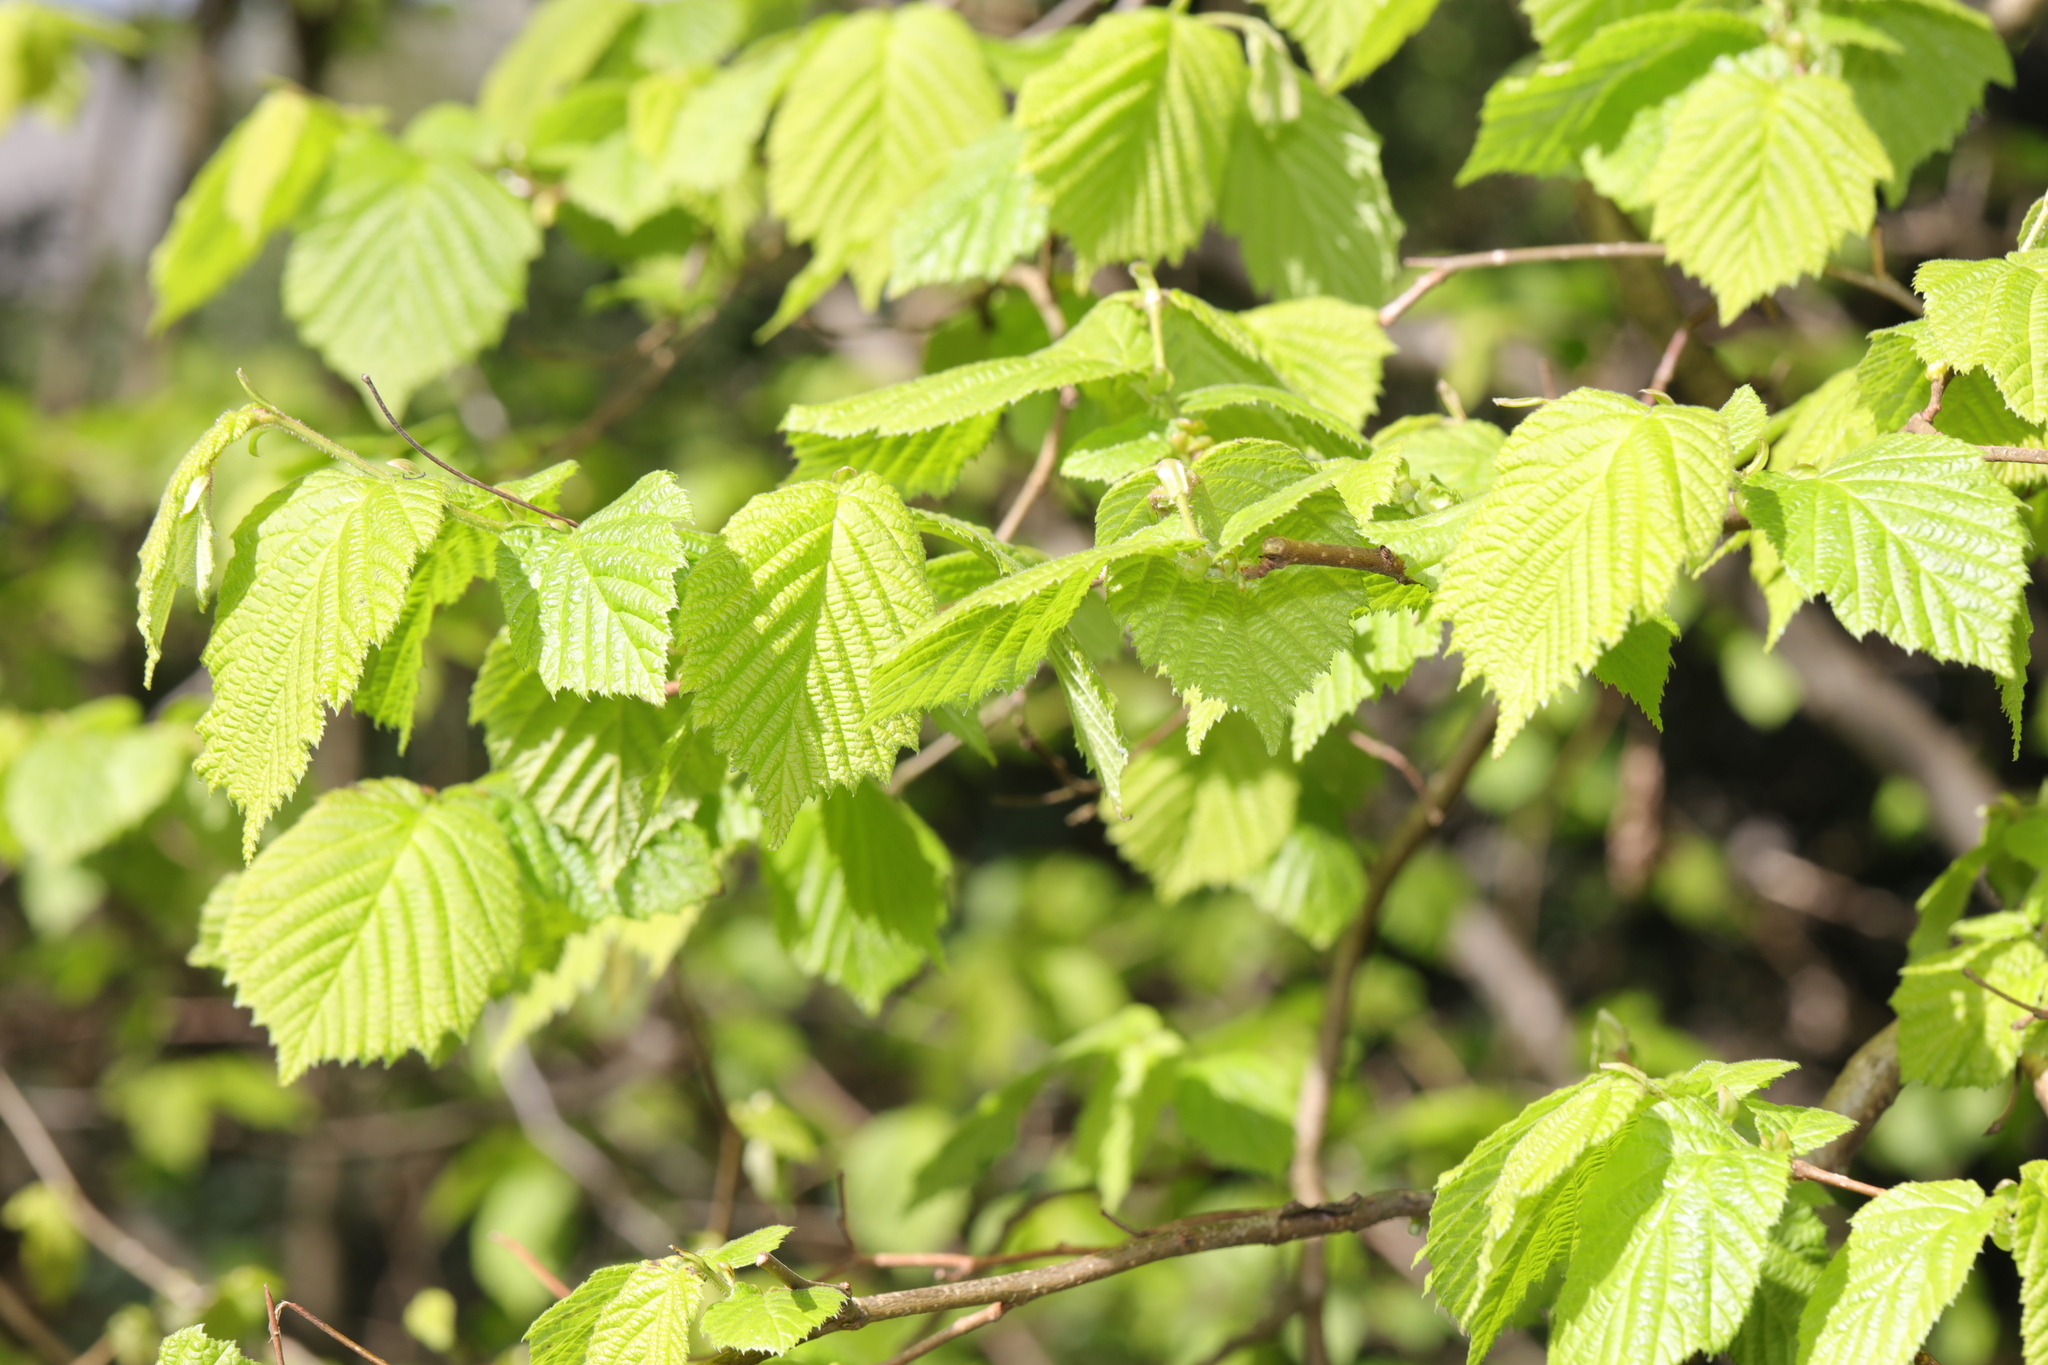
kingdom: Plantae
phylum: Tracheophyta
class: Magnoliopsida
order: Fagales
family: Betulaceae
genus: Corylus
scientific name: Corylus avellana
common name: European hazel
